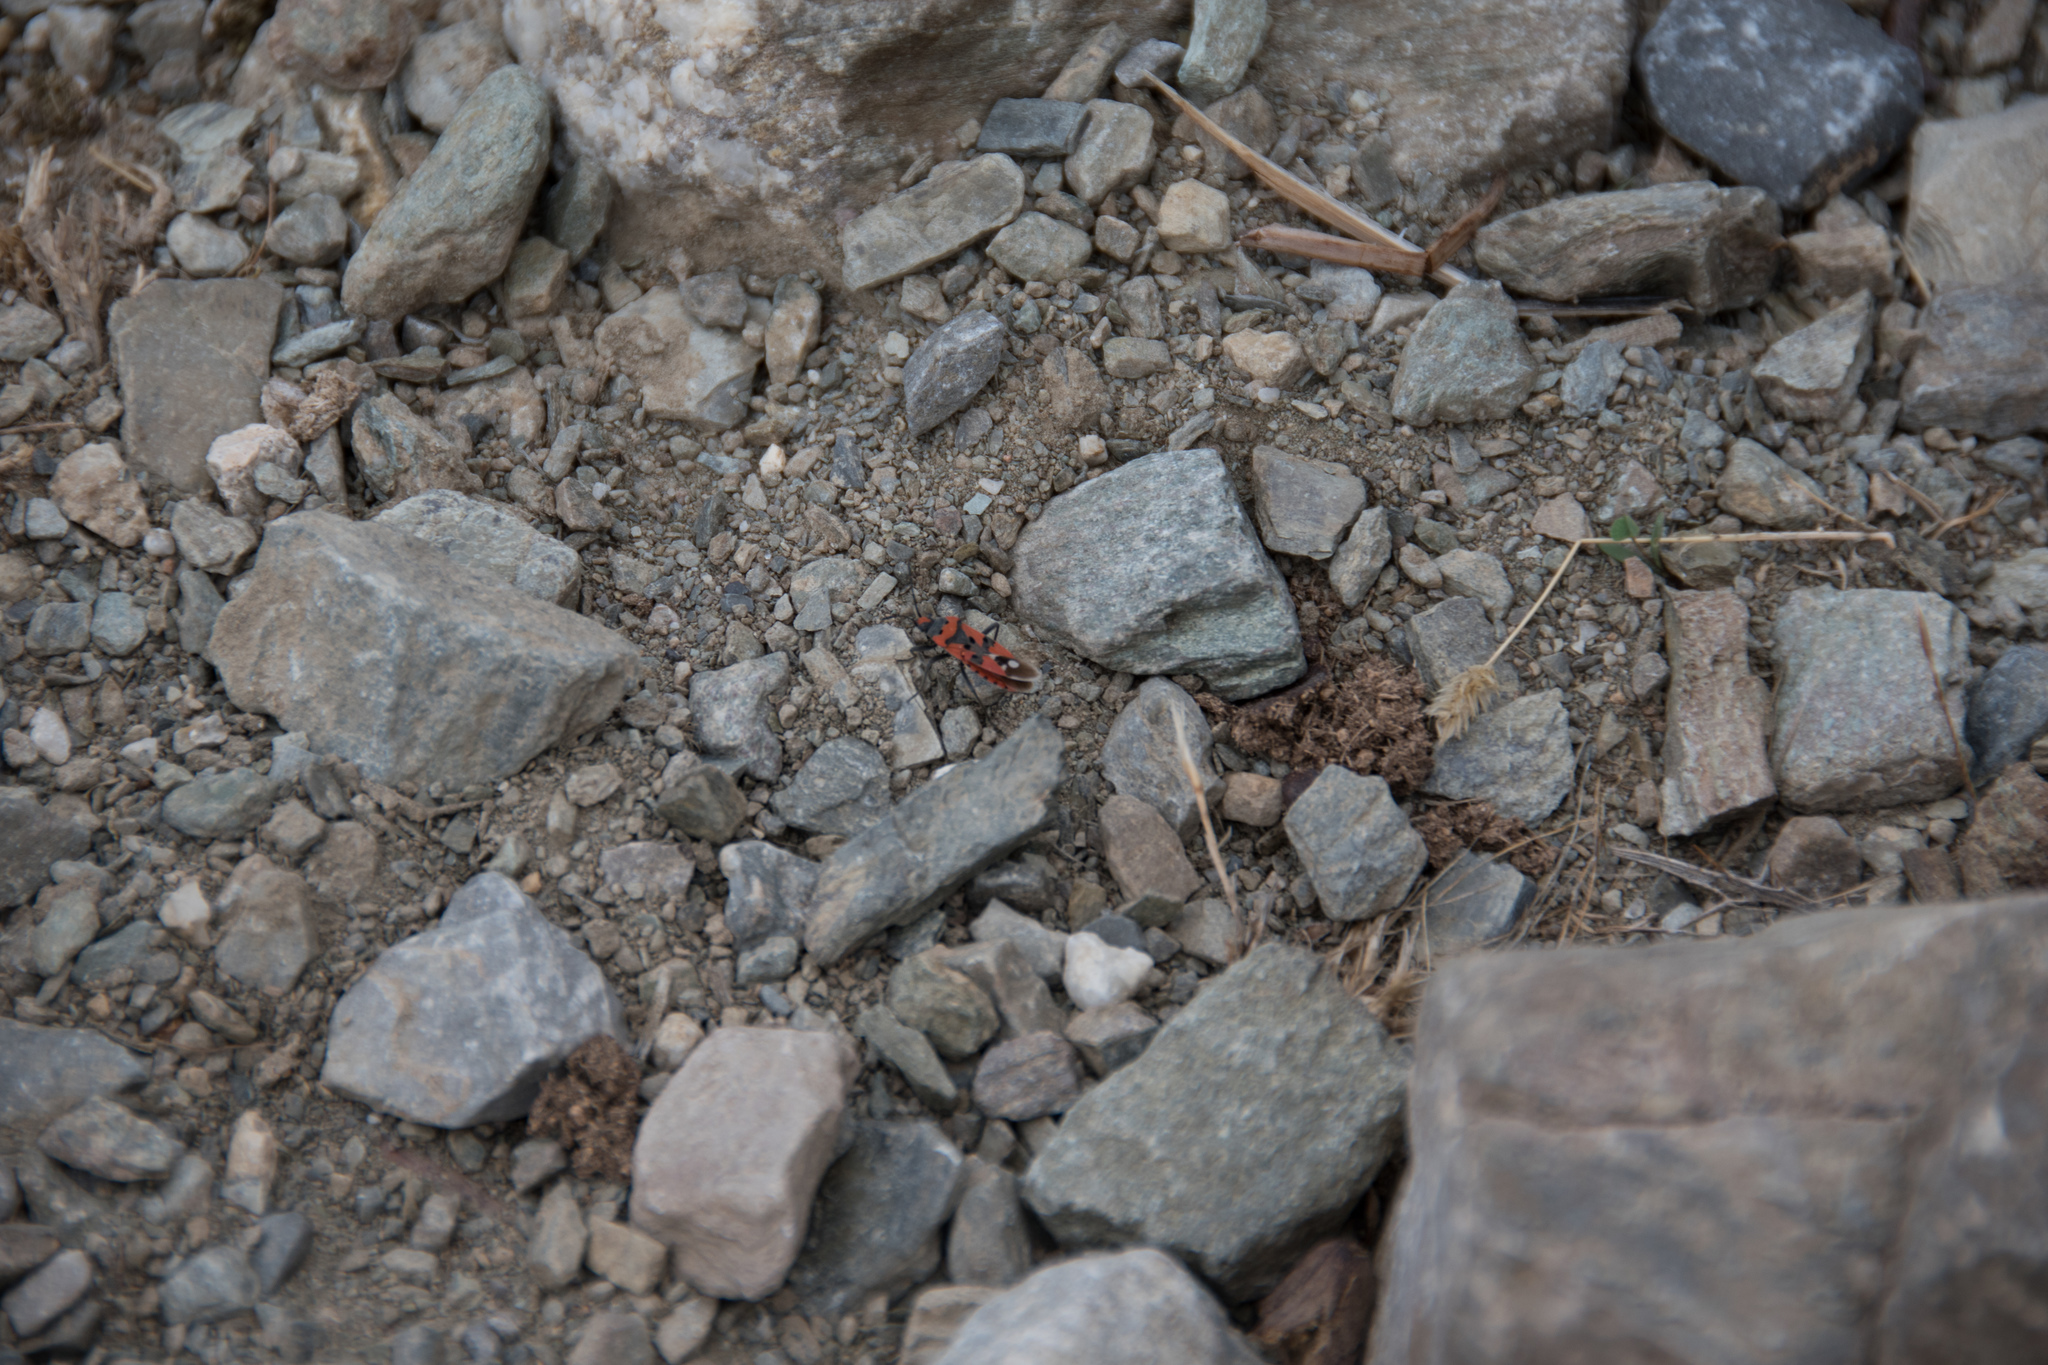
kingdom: Animalia
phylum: Arthropoda
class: Insecta
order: Hemiptera
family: Lygaeidae
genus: Lygaeus
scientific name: Lygaeus equestris
